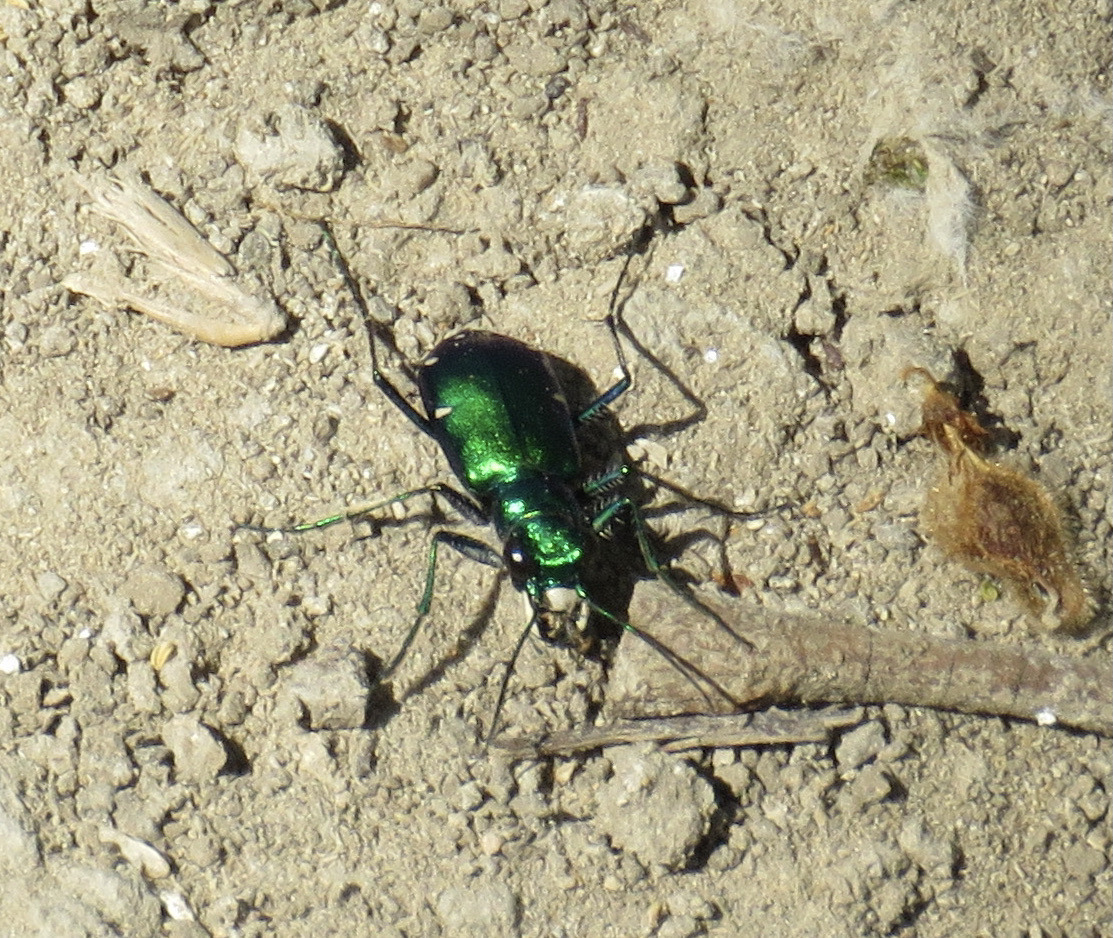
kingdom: Animalia
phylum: Arthropoda
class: Insecta
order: Coleoptera
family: Carabidae
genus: Cicindela
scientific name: Cicindela sexguttata
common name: Six-spotted tiger beetle
